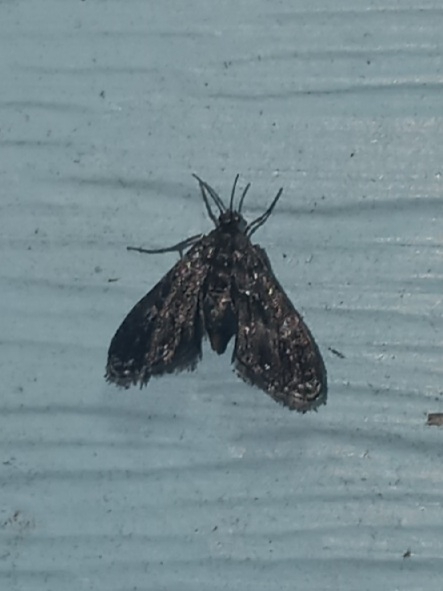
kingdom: Animalia
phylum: Arthropoda
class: Insecta
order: Lepidoptera
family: Crambidae
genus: Elophila
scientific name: Elophila tinealis
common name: Black duckweed moth
